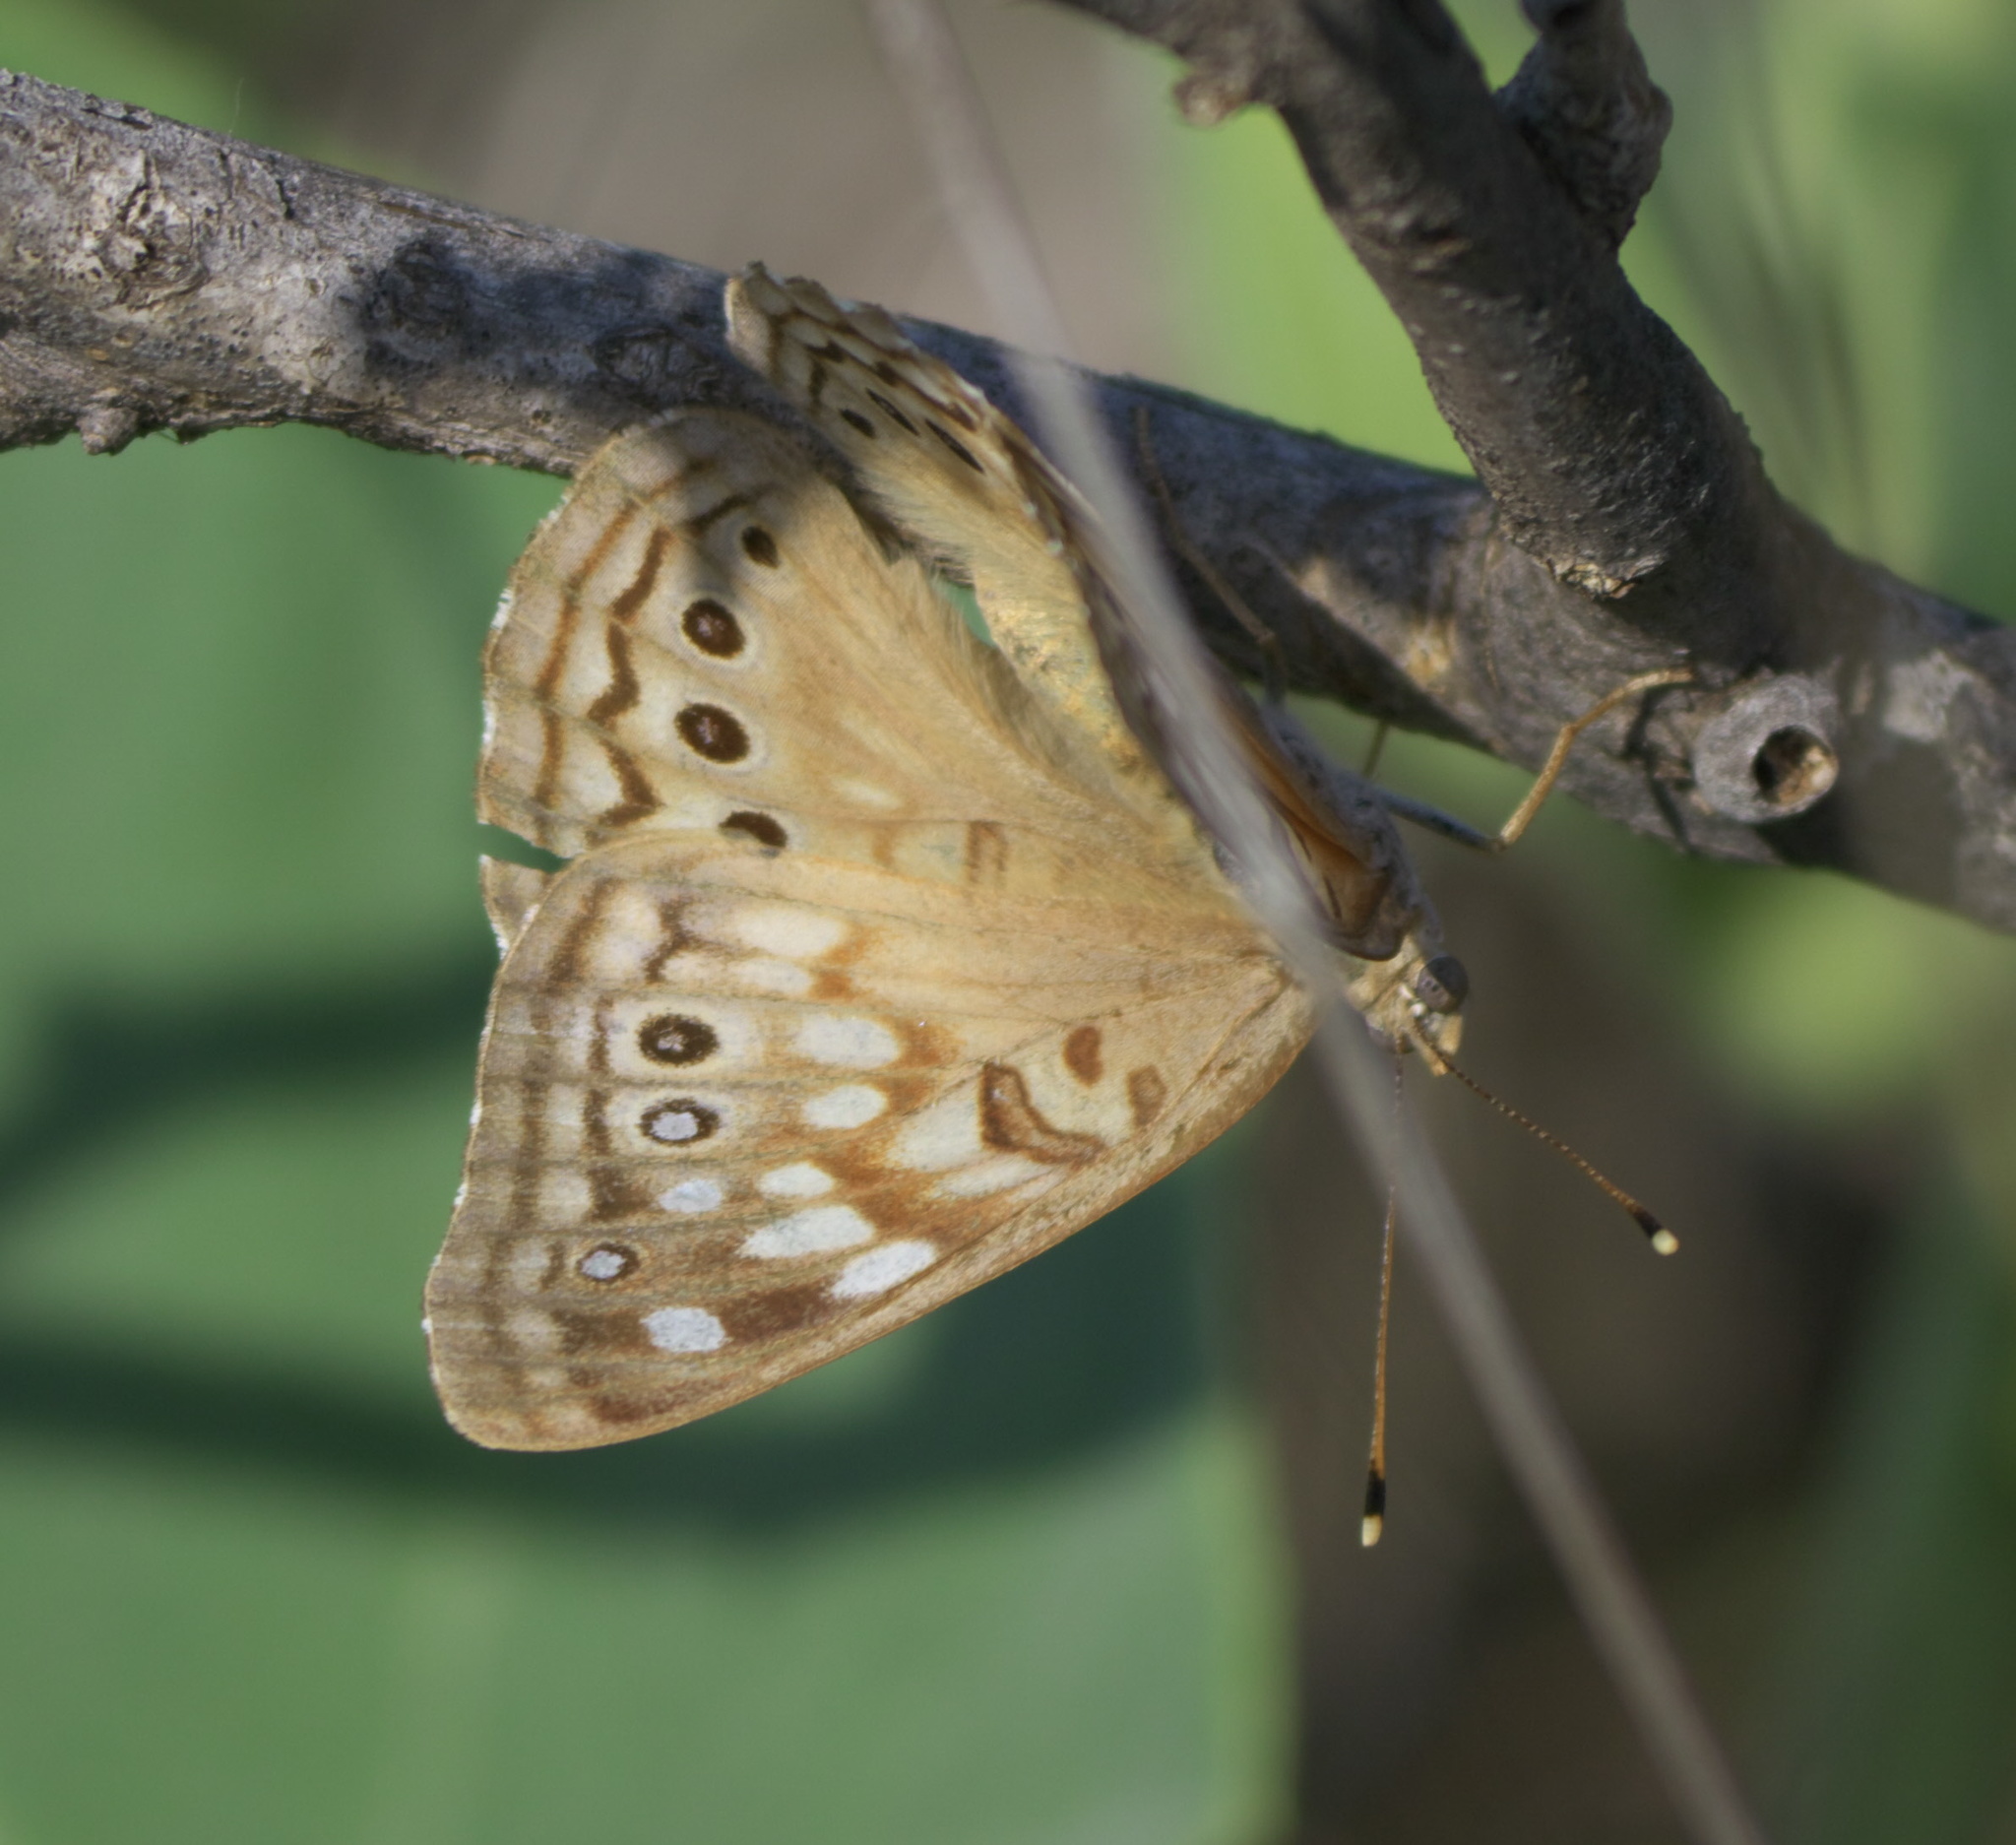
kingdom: Animalia
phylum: Arthropoda
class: Insecta
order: Lepidoptera
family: Nymphalidae
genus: Asterocampa
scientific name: Asterocampa leilia
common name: Empress leilia
